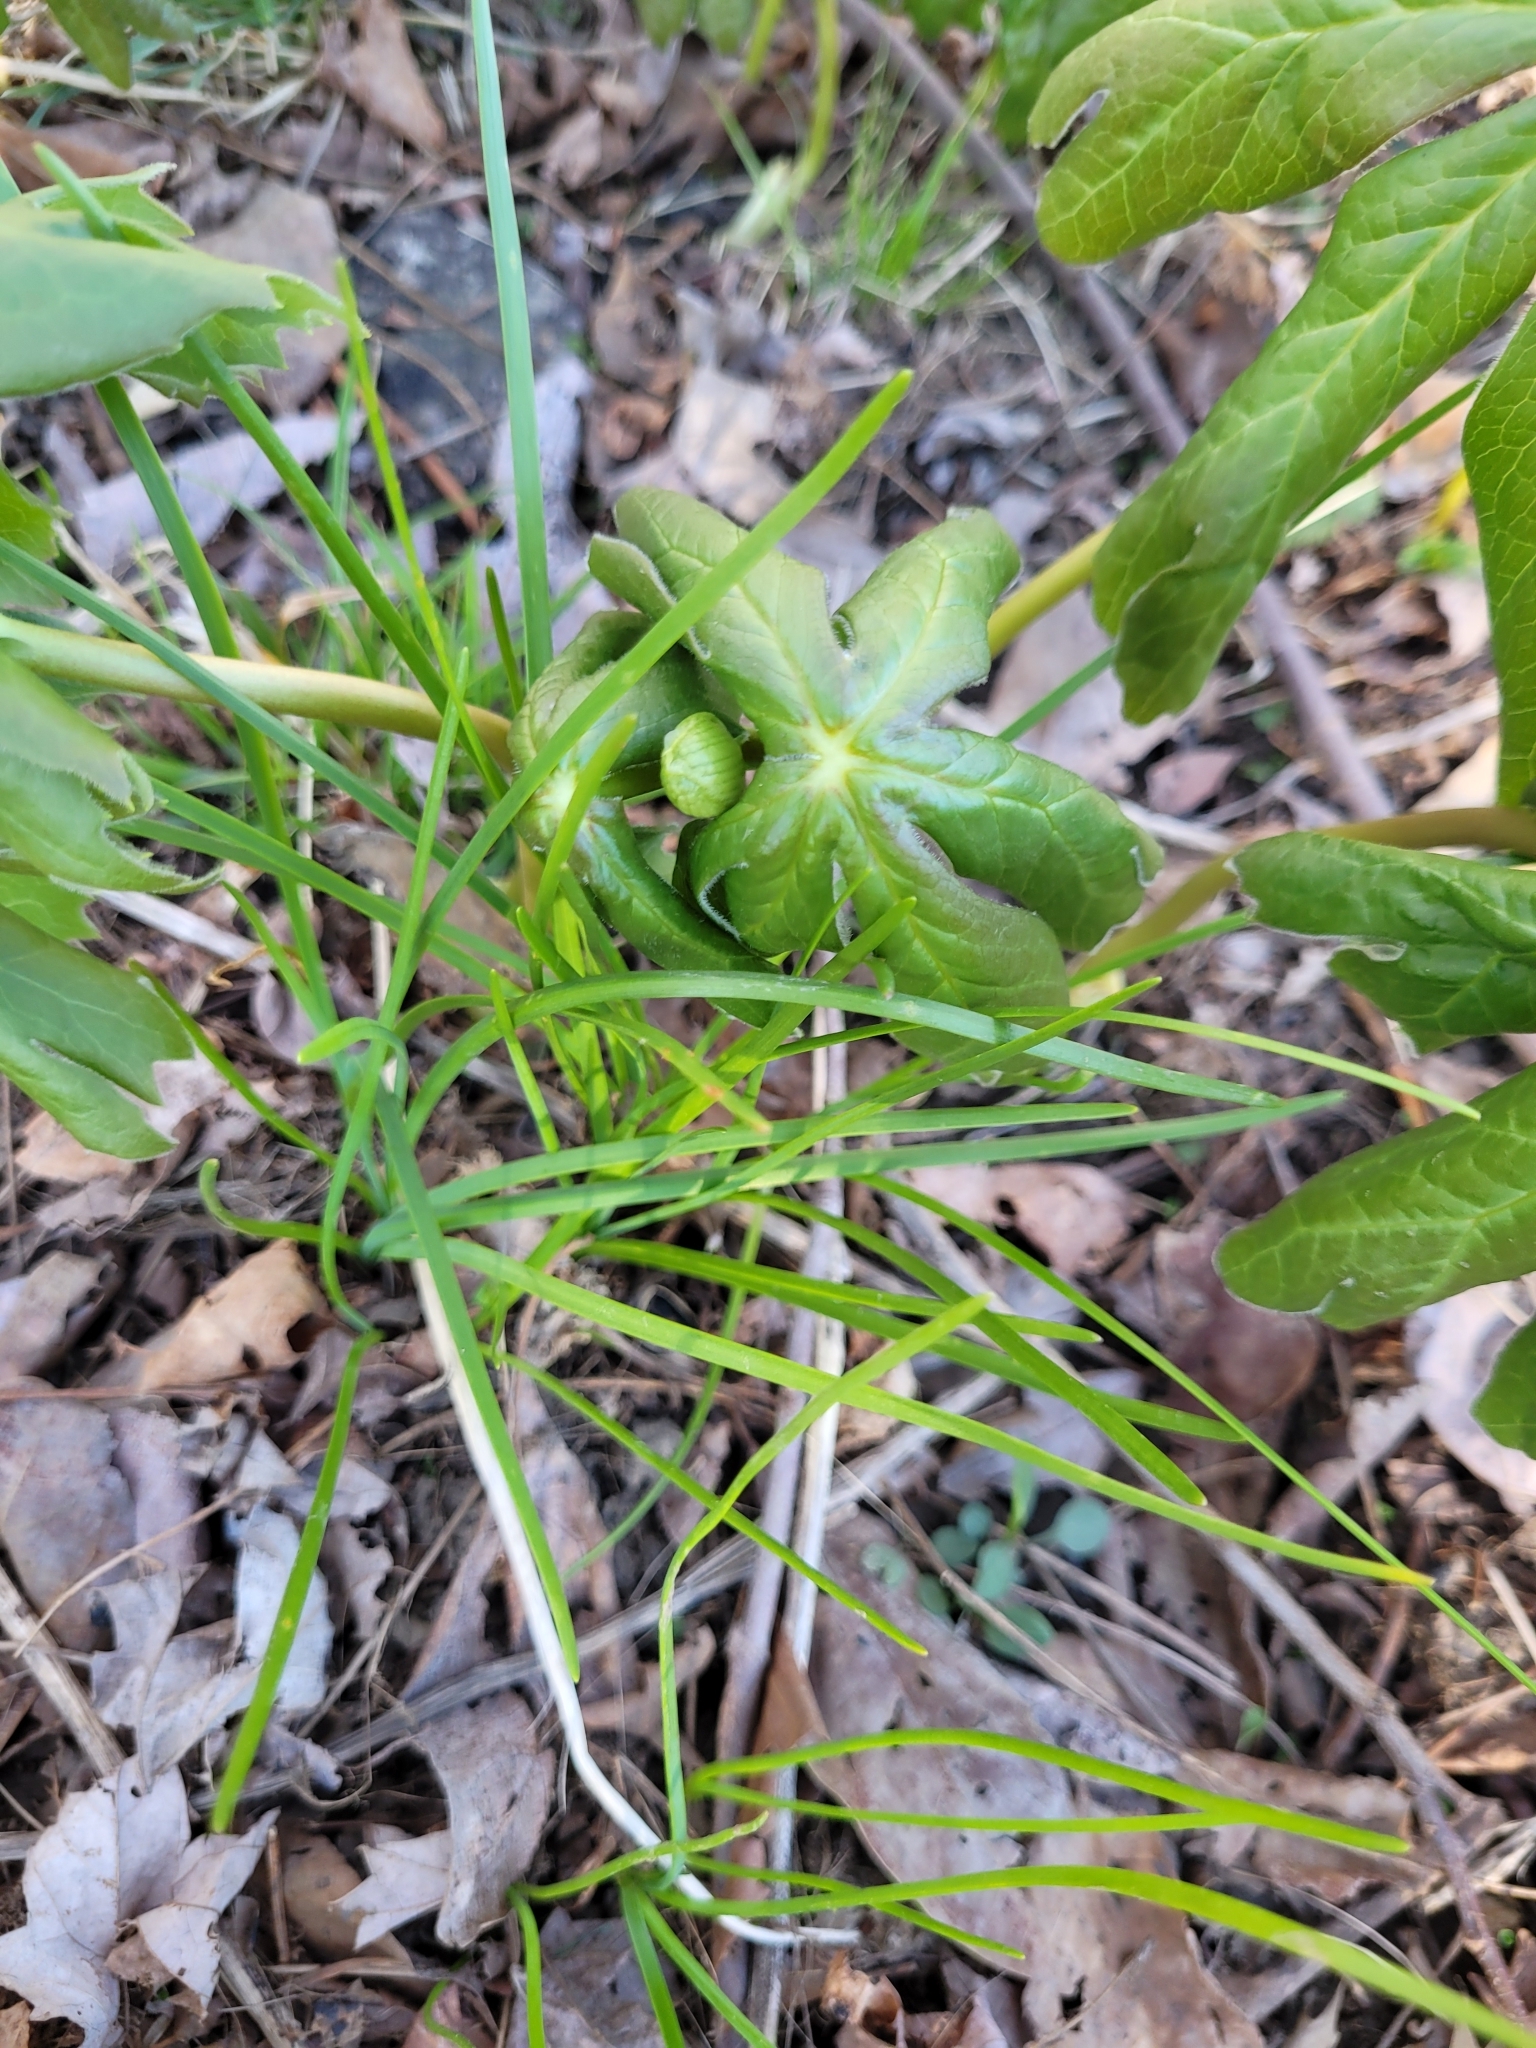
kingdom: Plantae
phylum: Tracheophyta
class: Magnoliopsida
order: Ranunculales
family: Berberidaceae
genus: Podophyllum
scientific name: Podophyllum peltatum
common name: Wild mandrake
